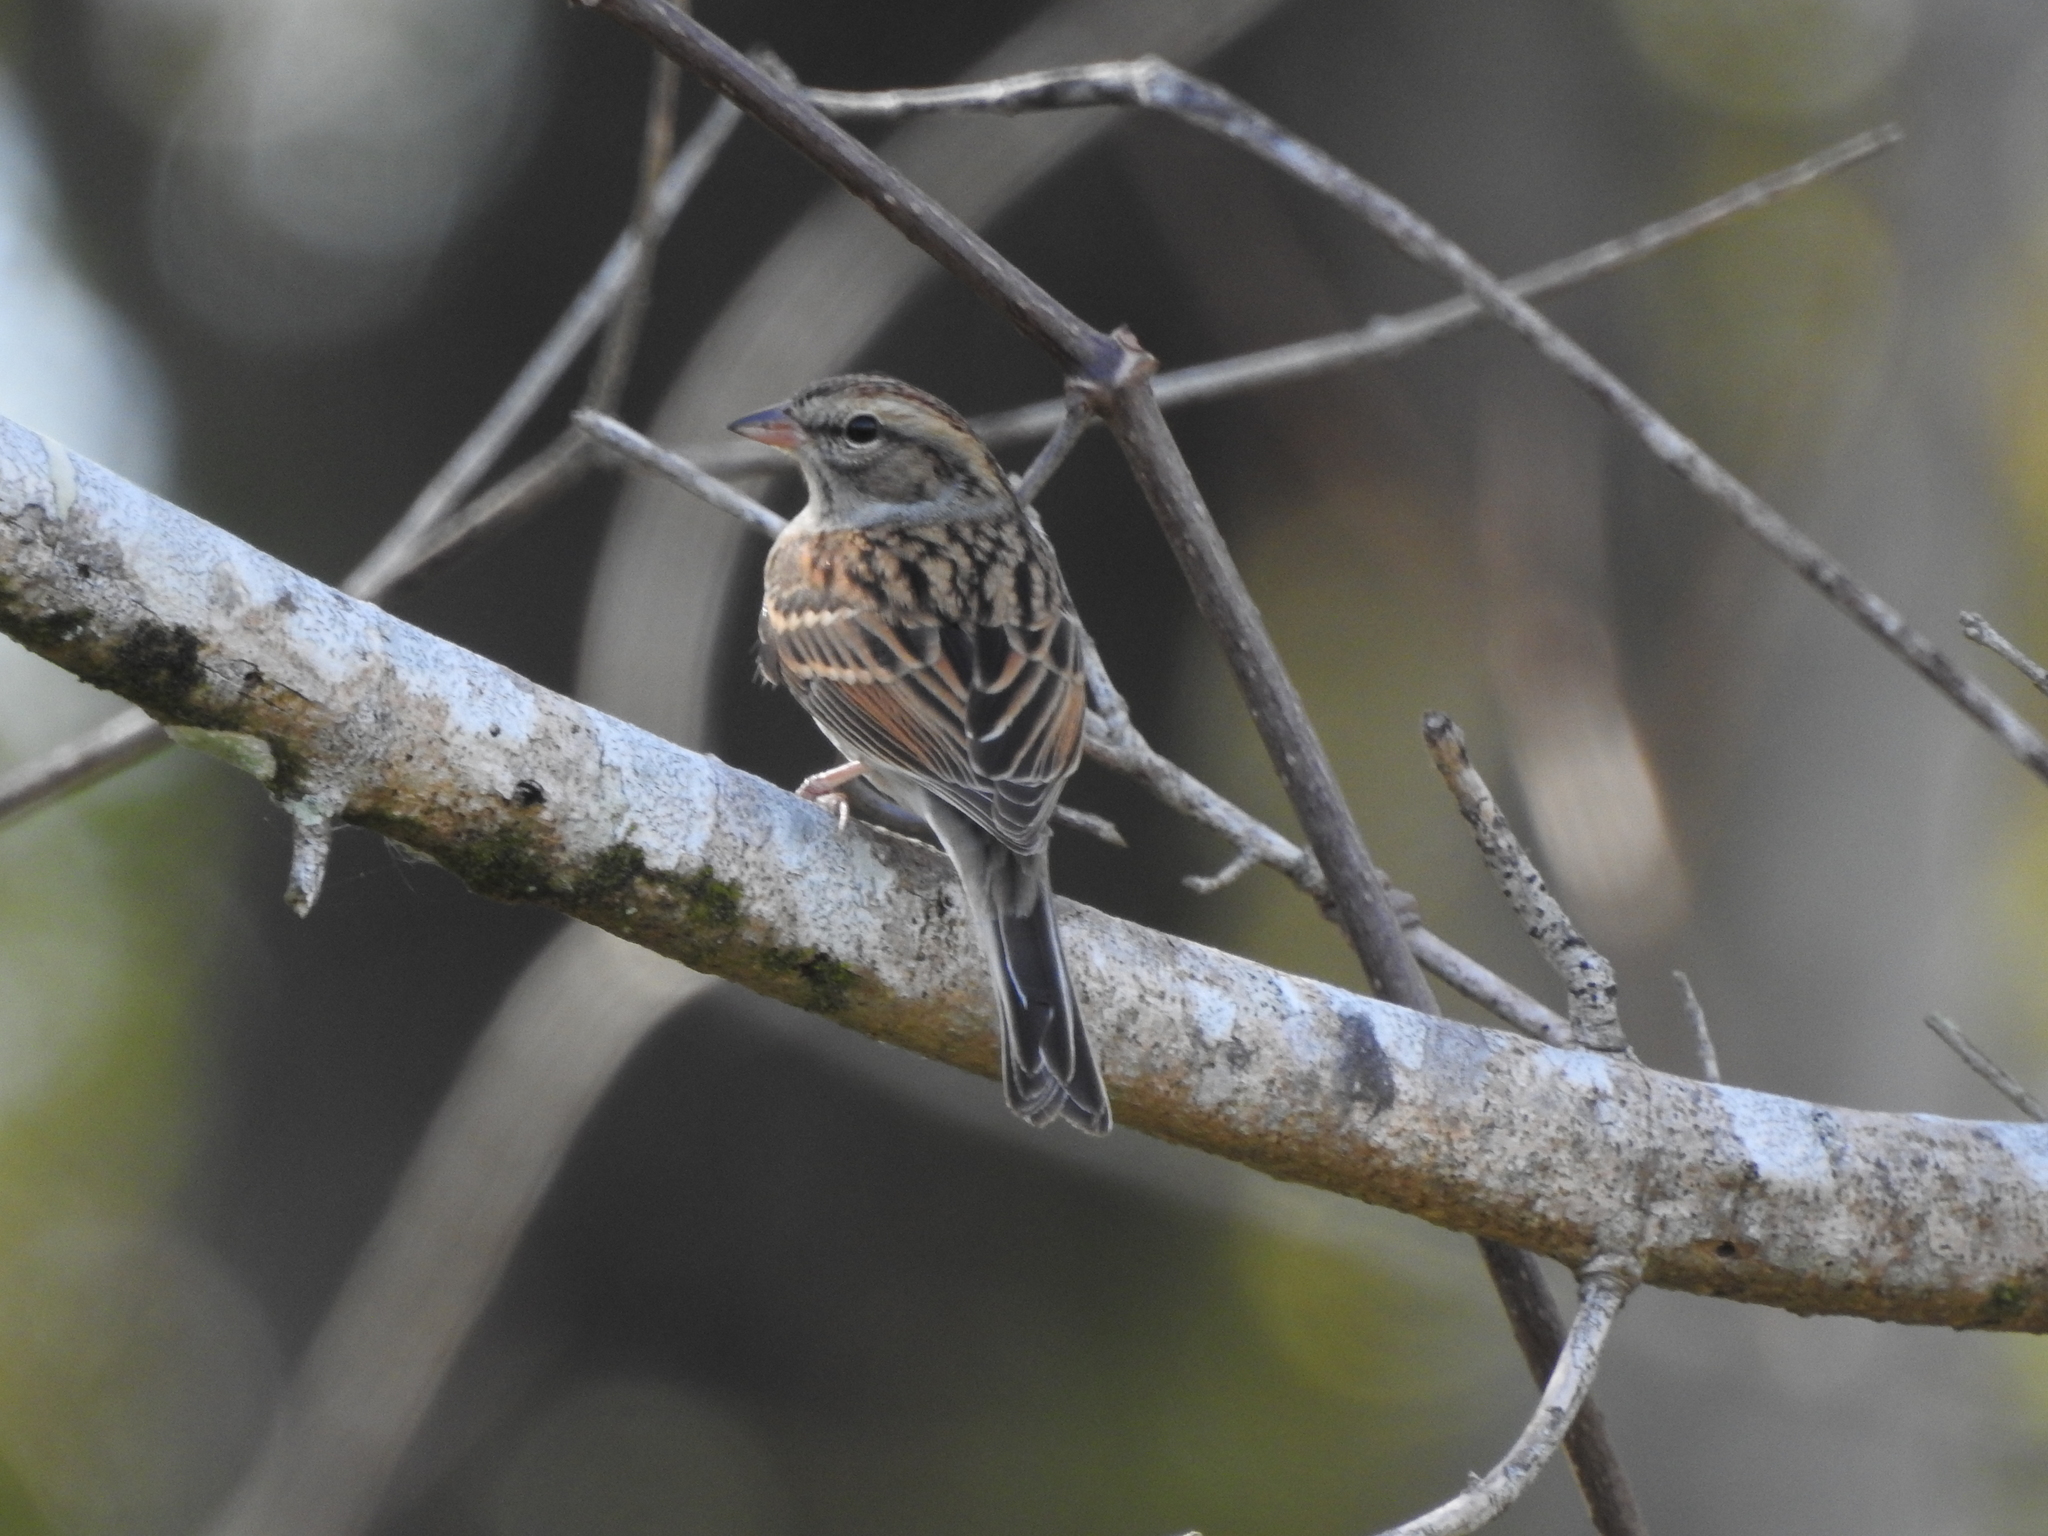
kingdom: Animalia
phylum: Chordata
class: Aves
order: Passeriformes
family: Passerellidae
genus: Spizella
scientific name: Spizella passerina
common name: Chipping sparrow
